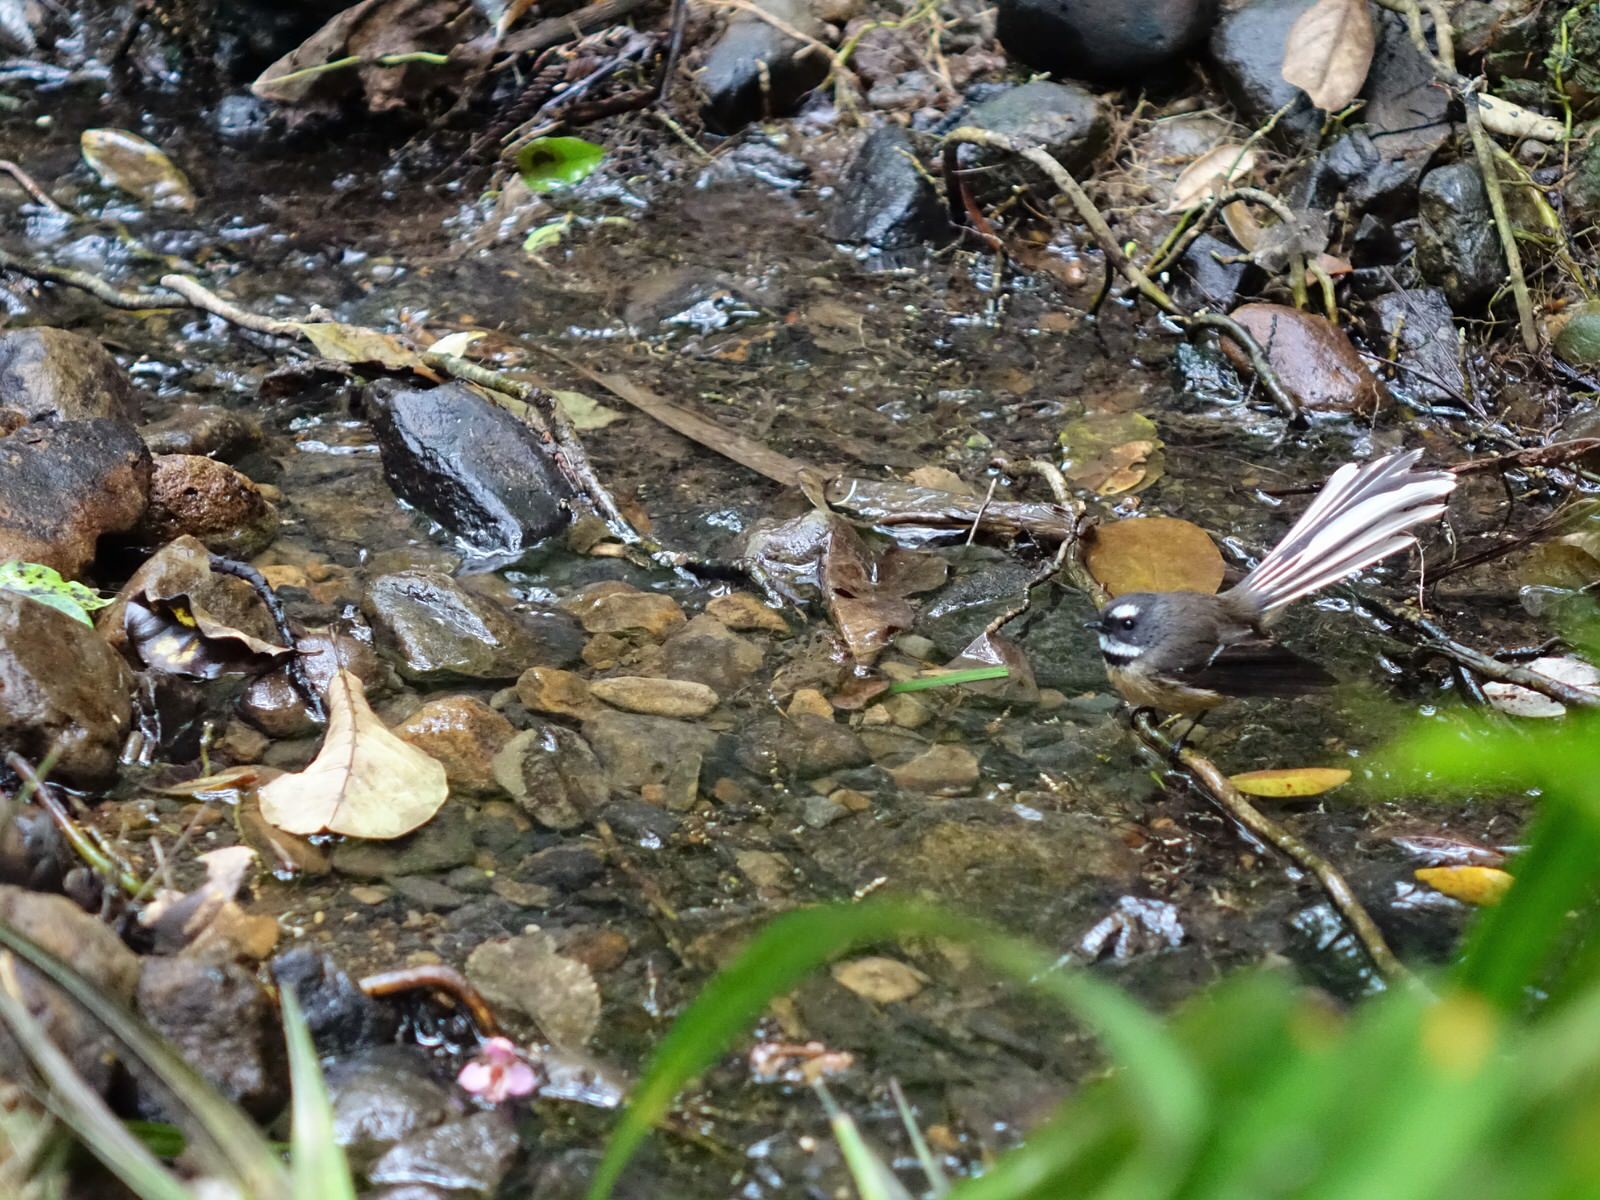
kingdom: Animalia
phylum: Chordata
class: Aves
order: Passeriformes
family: Rhipiduridae
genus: Rhipidura
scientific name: Rhipidura fuliginosa
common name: New zealand fantail
